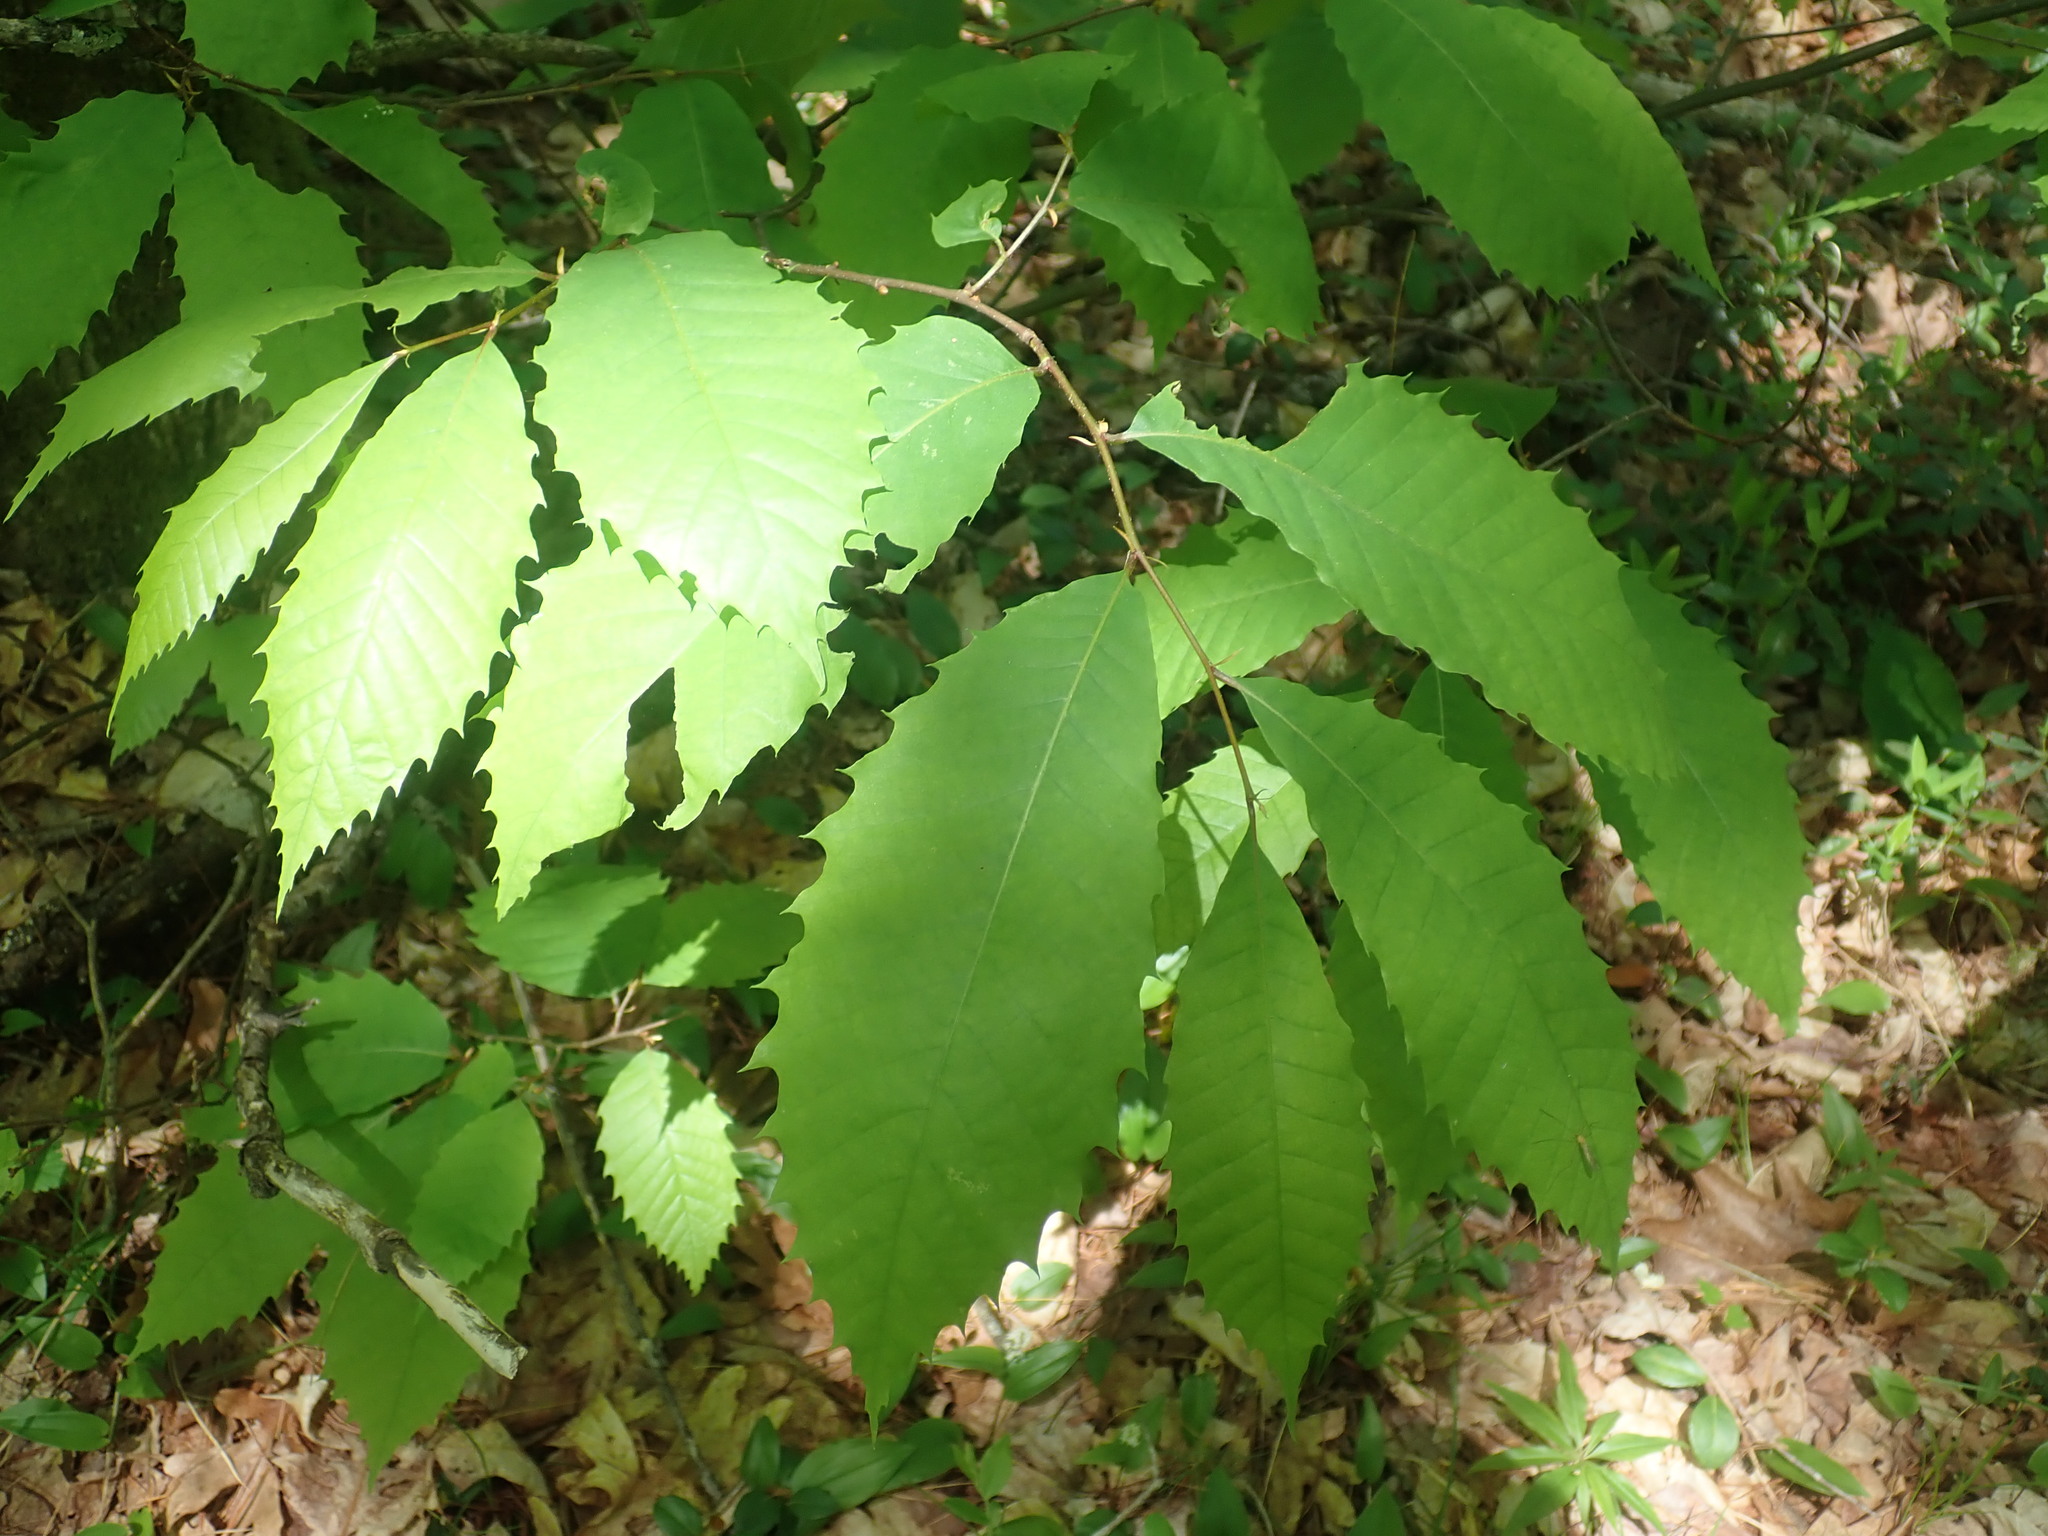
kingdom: Plantae
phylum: Tracheophyta
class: Magnoliopsida
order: Fagales
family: Fagaceae
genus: Castanea
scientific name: Castanea dentata
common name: American chestnut
